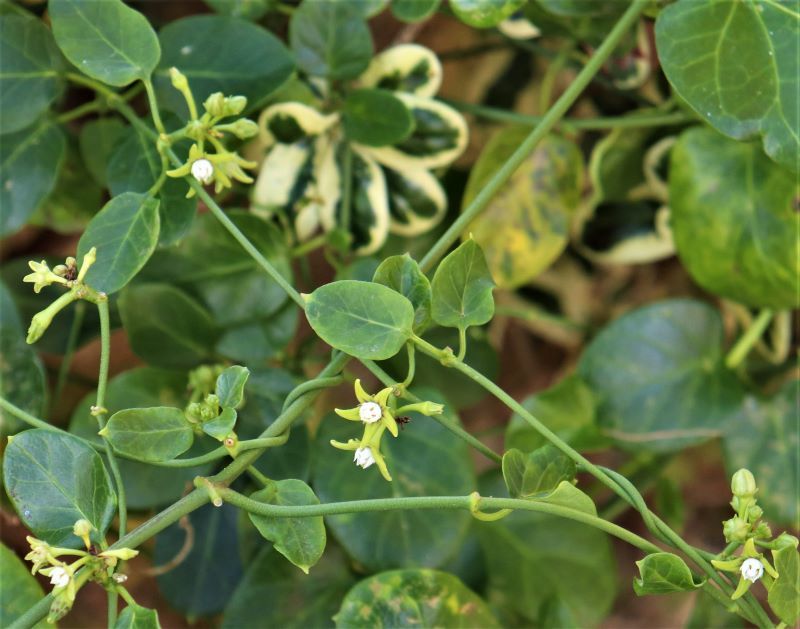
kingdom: Plantae
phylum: Tracheophyta
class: Magnoliopsida
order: Gentianales
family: Apocynaceae
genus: Cynanchum
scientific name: Cynanchum obtusifolium
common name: Monkey-rope
